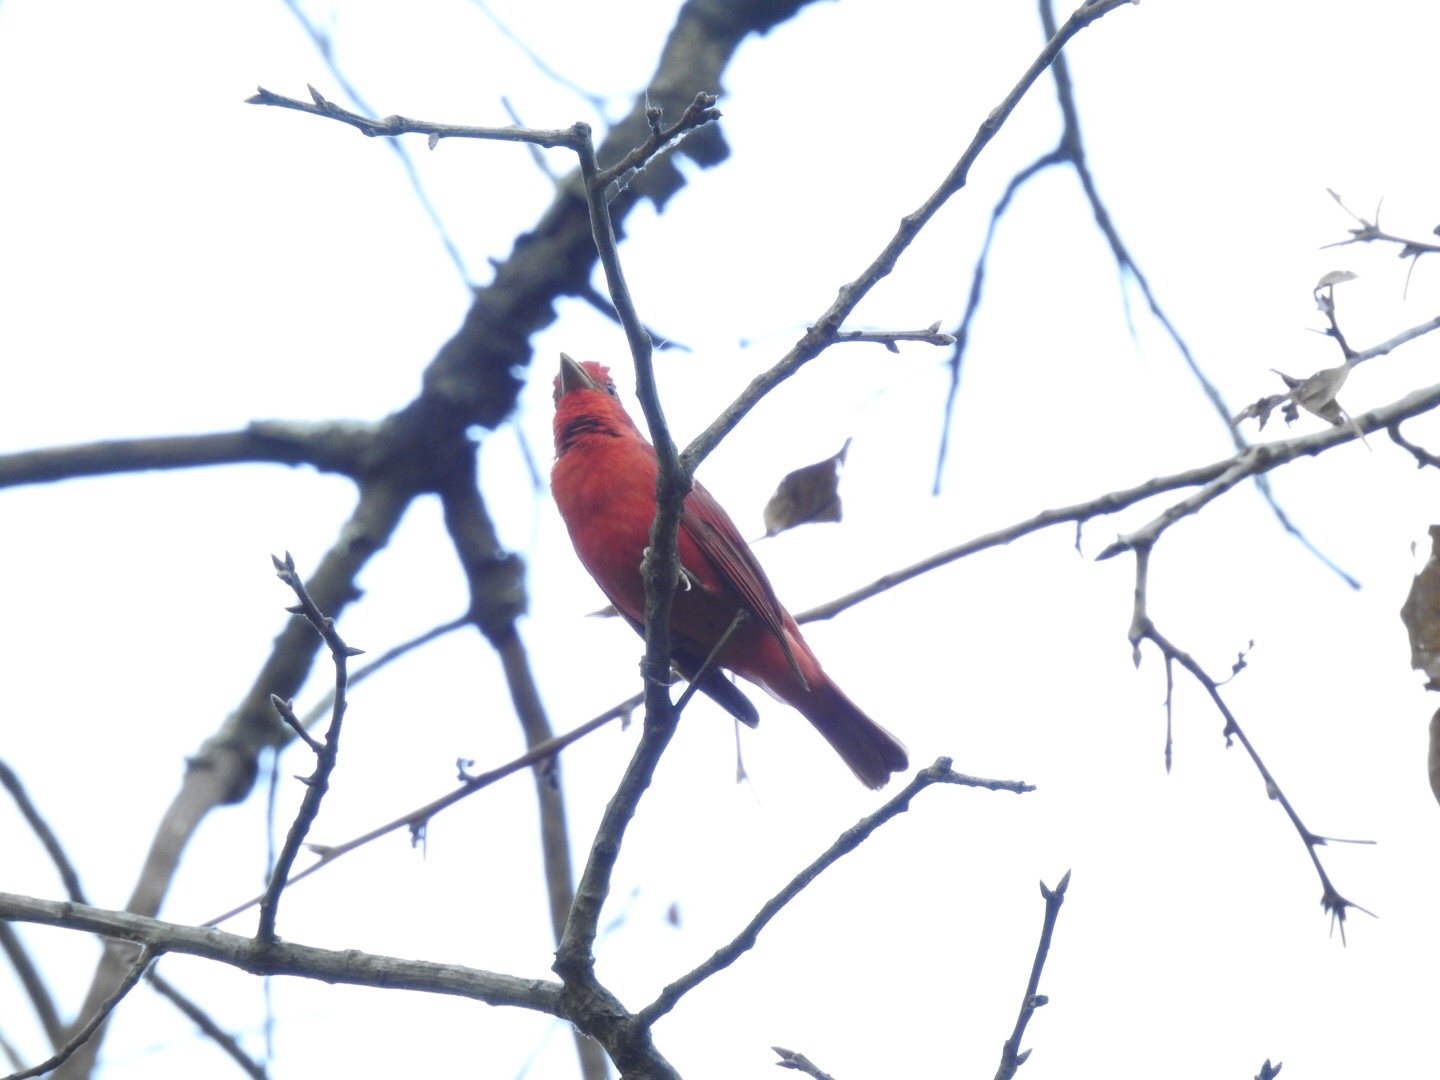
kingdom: Animalia
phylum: Chordata
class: Aves
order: Passeriformes
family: Cardinalidae
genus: Piranga
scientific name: Piranga rubra
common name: Summer tanager
